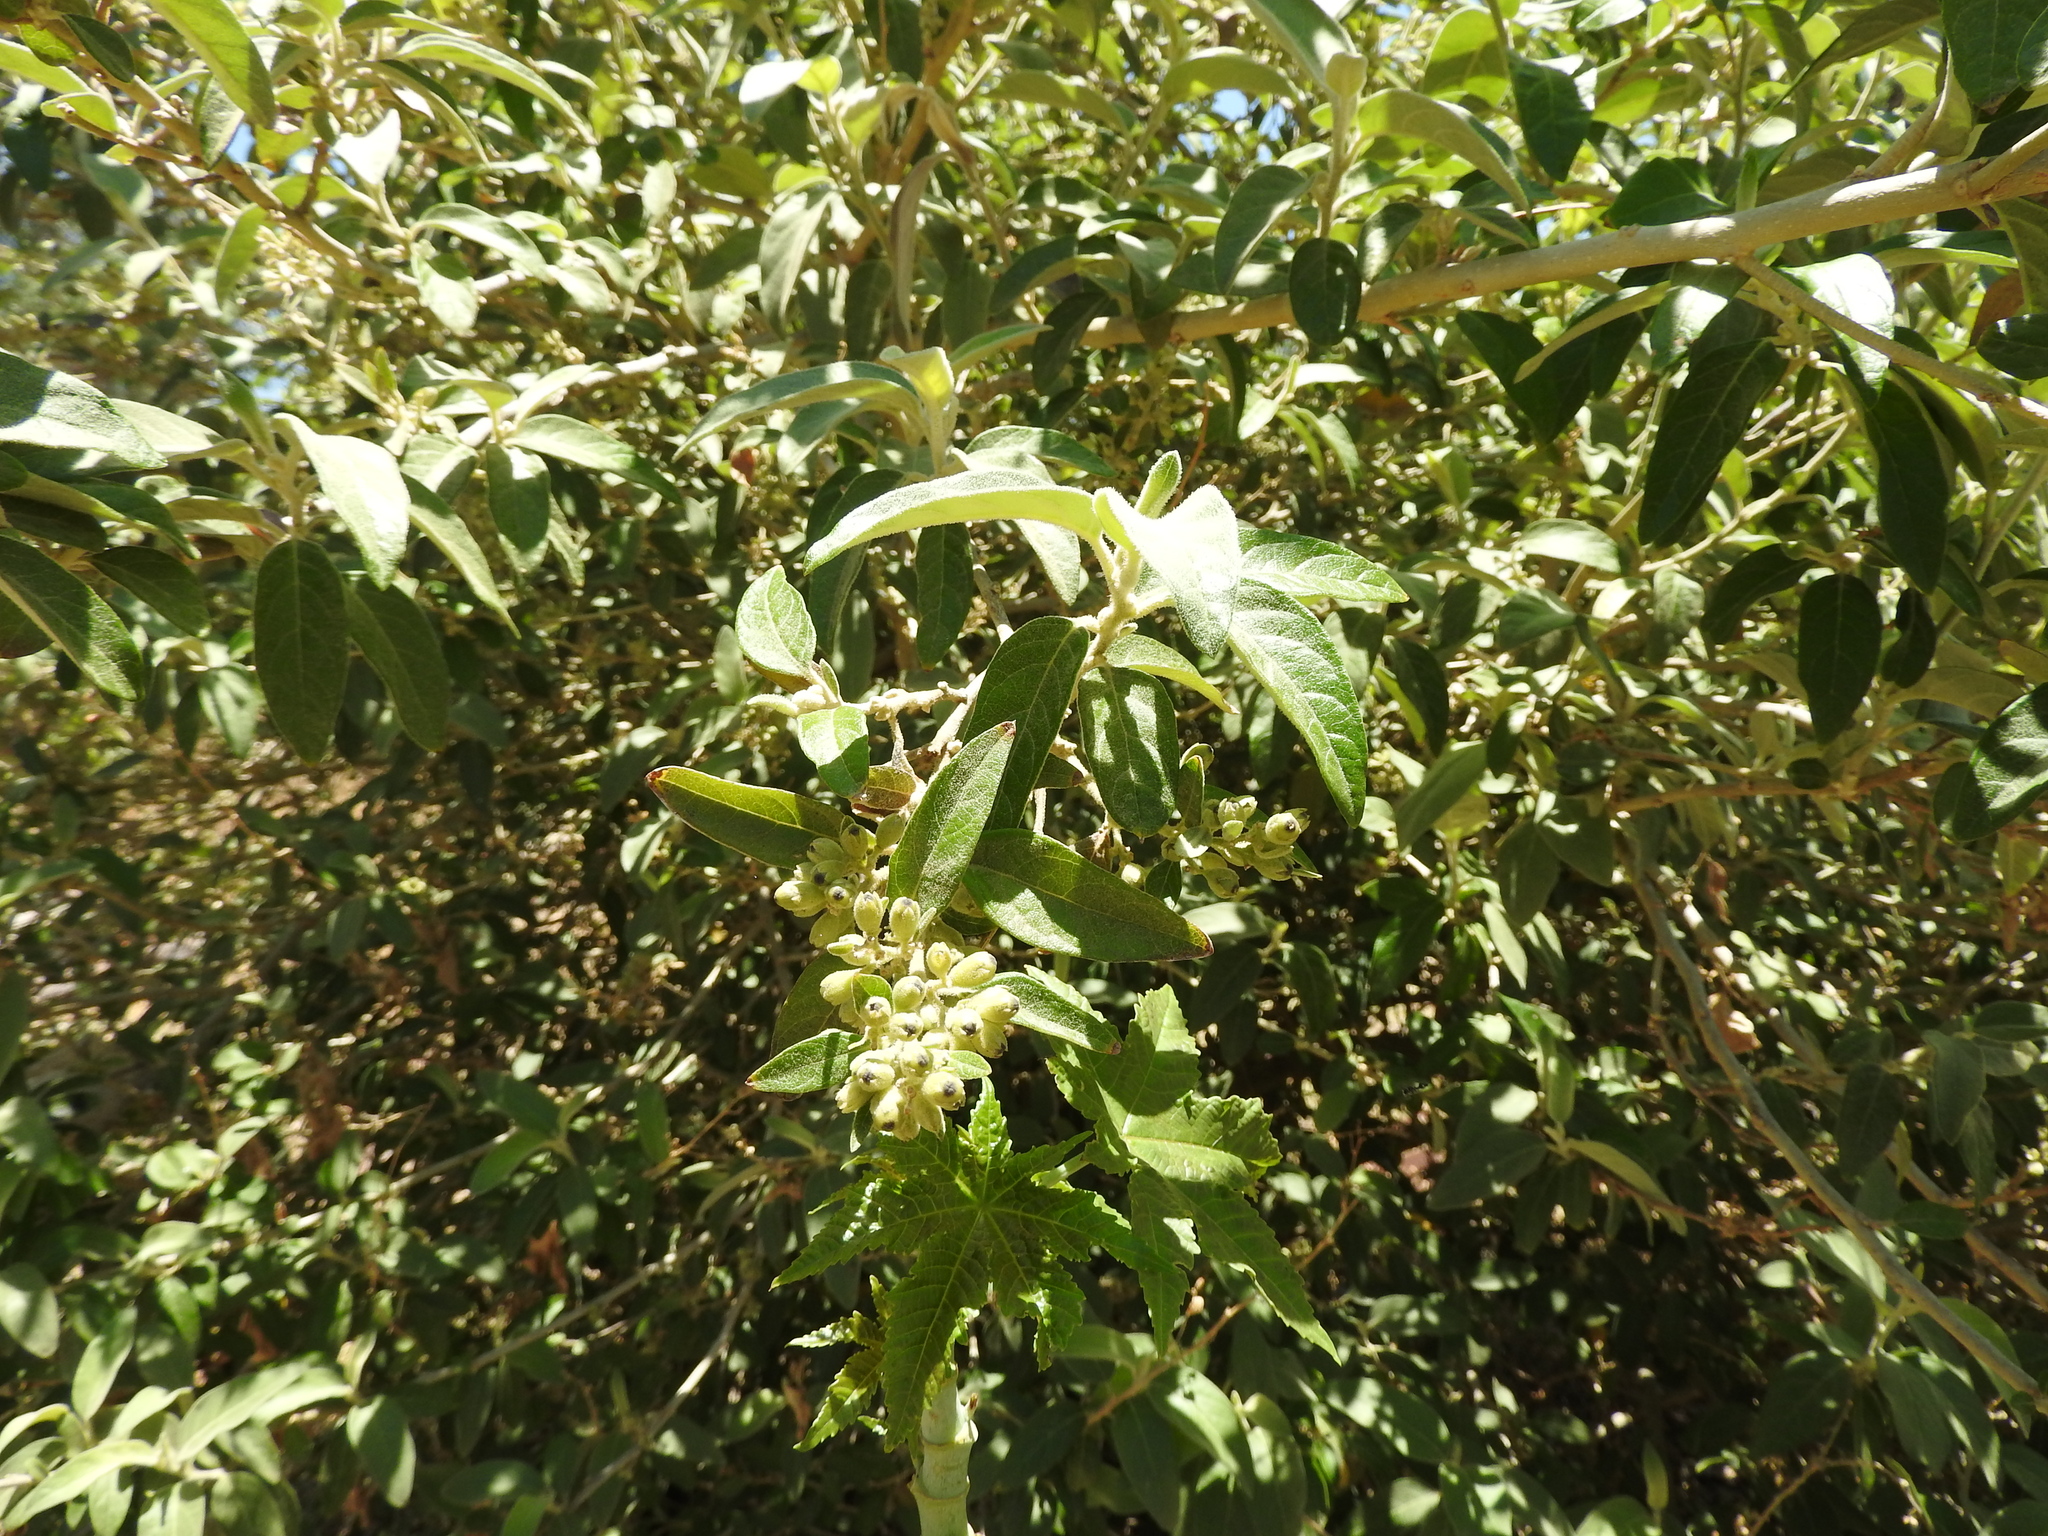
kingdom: Plantae
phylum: Tracheophyta
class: Magnoliopsida
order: Lamiales
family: Scrophulariaceae
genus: Buddleja
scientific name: Buddleja cordata
